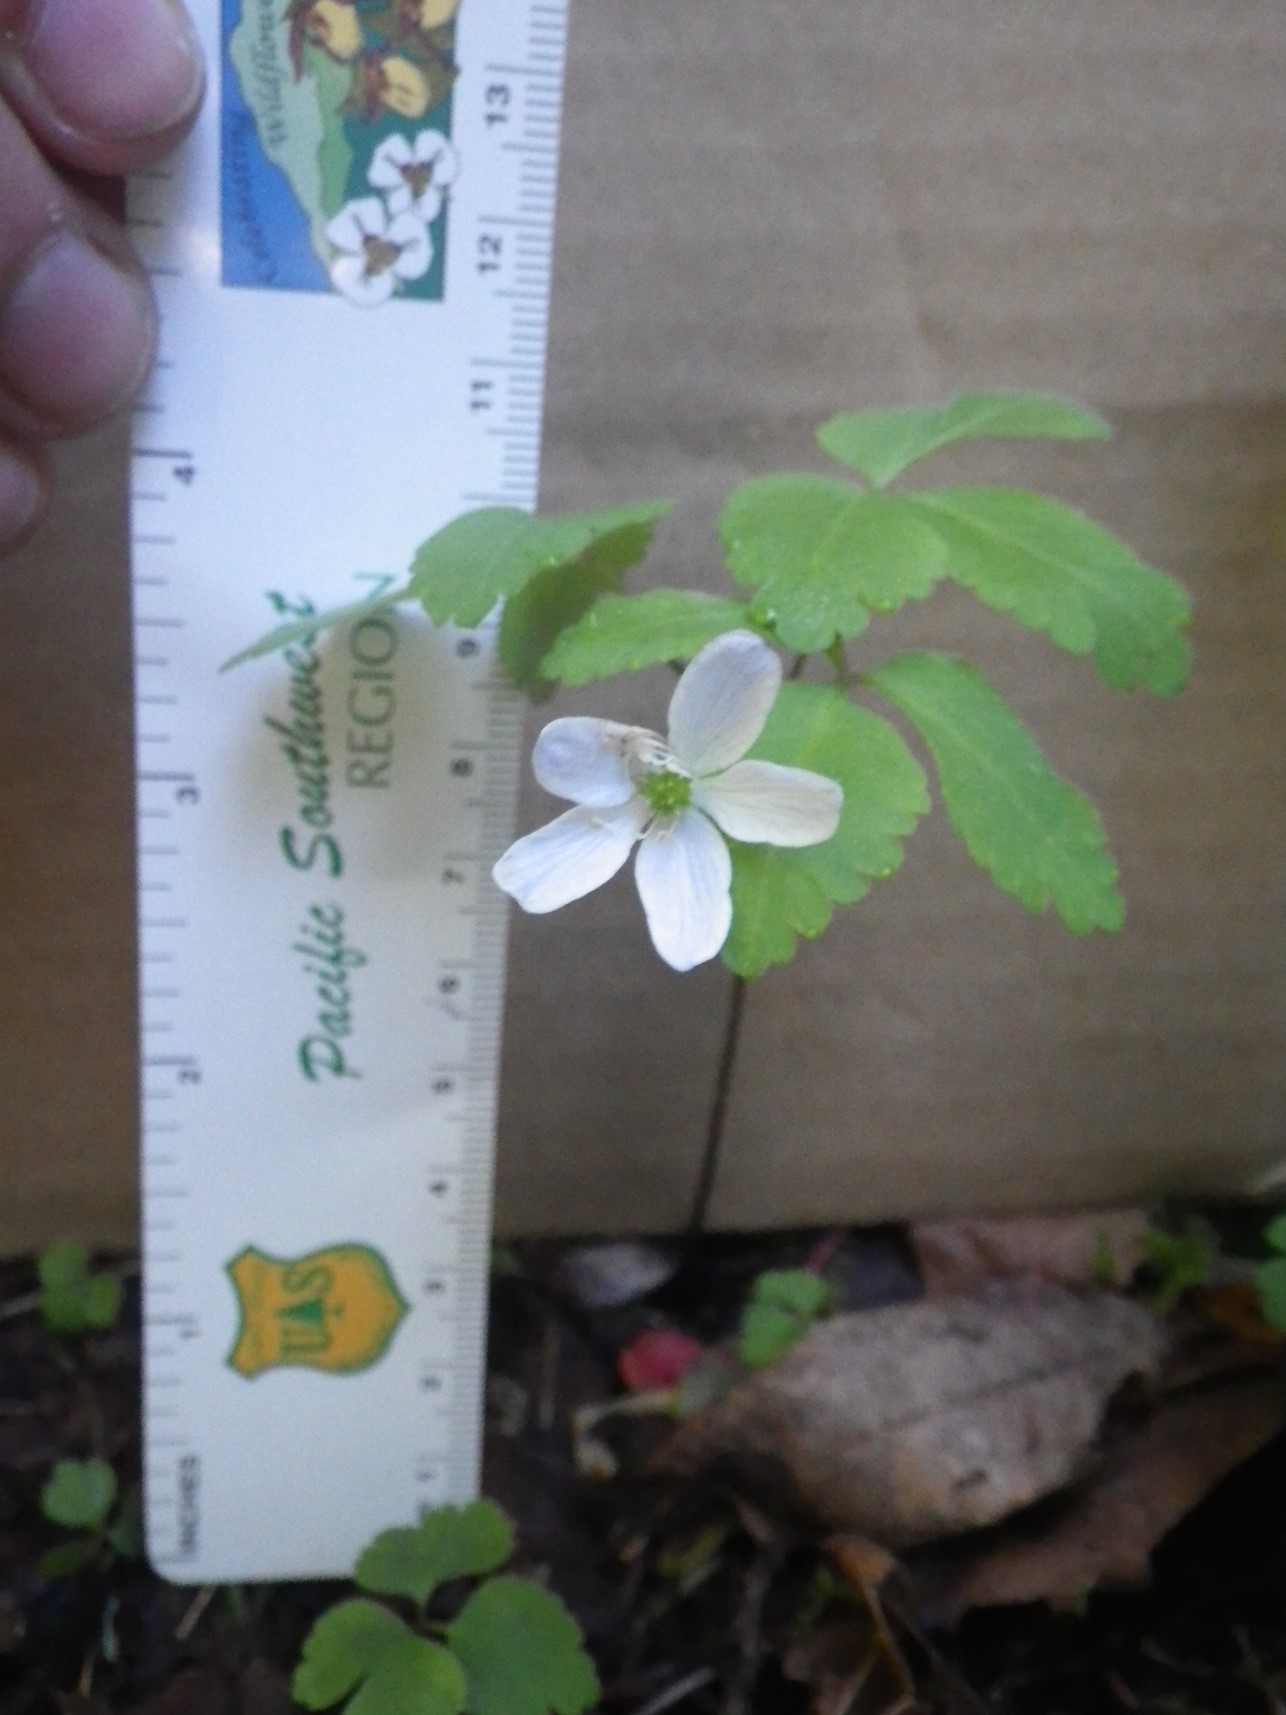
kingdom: Plantae
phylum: Tracheophyta
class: Magnoliopsida
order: Ranunculales
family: Ranunculaceae
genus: Anemone
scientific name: Anemone
